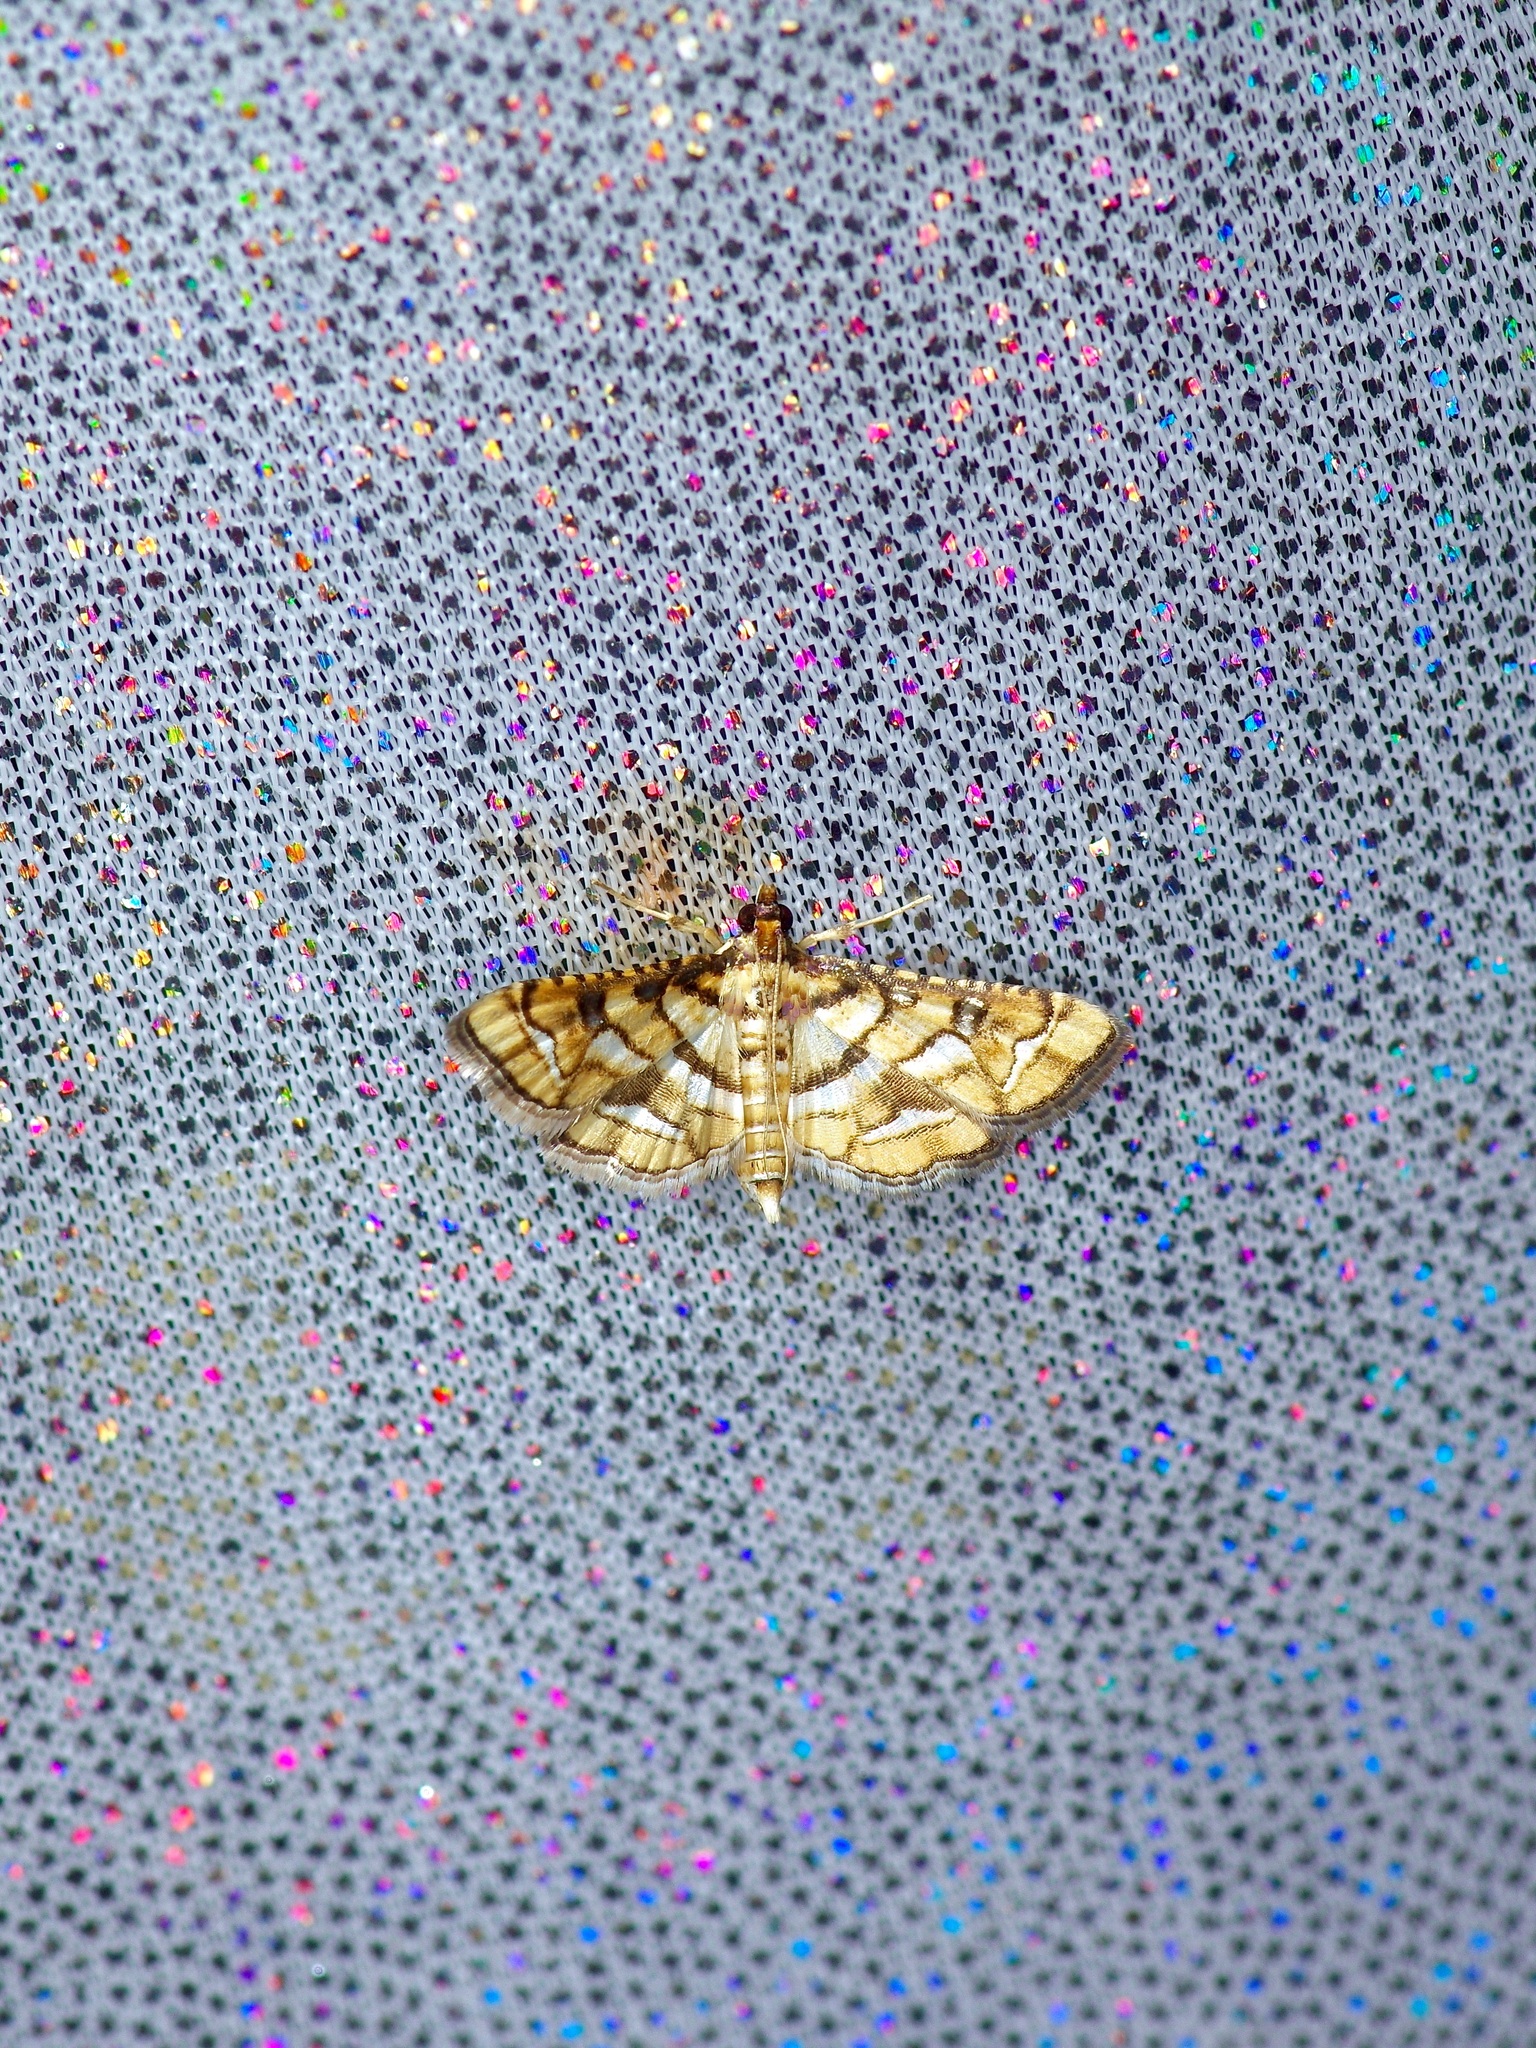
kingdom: Animalia
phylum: Arthropoda
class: Insecta
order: Lepidoptera
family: Crambidae
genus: Hileithia
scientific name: Hileithia magualis
